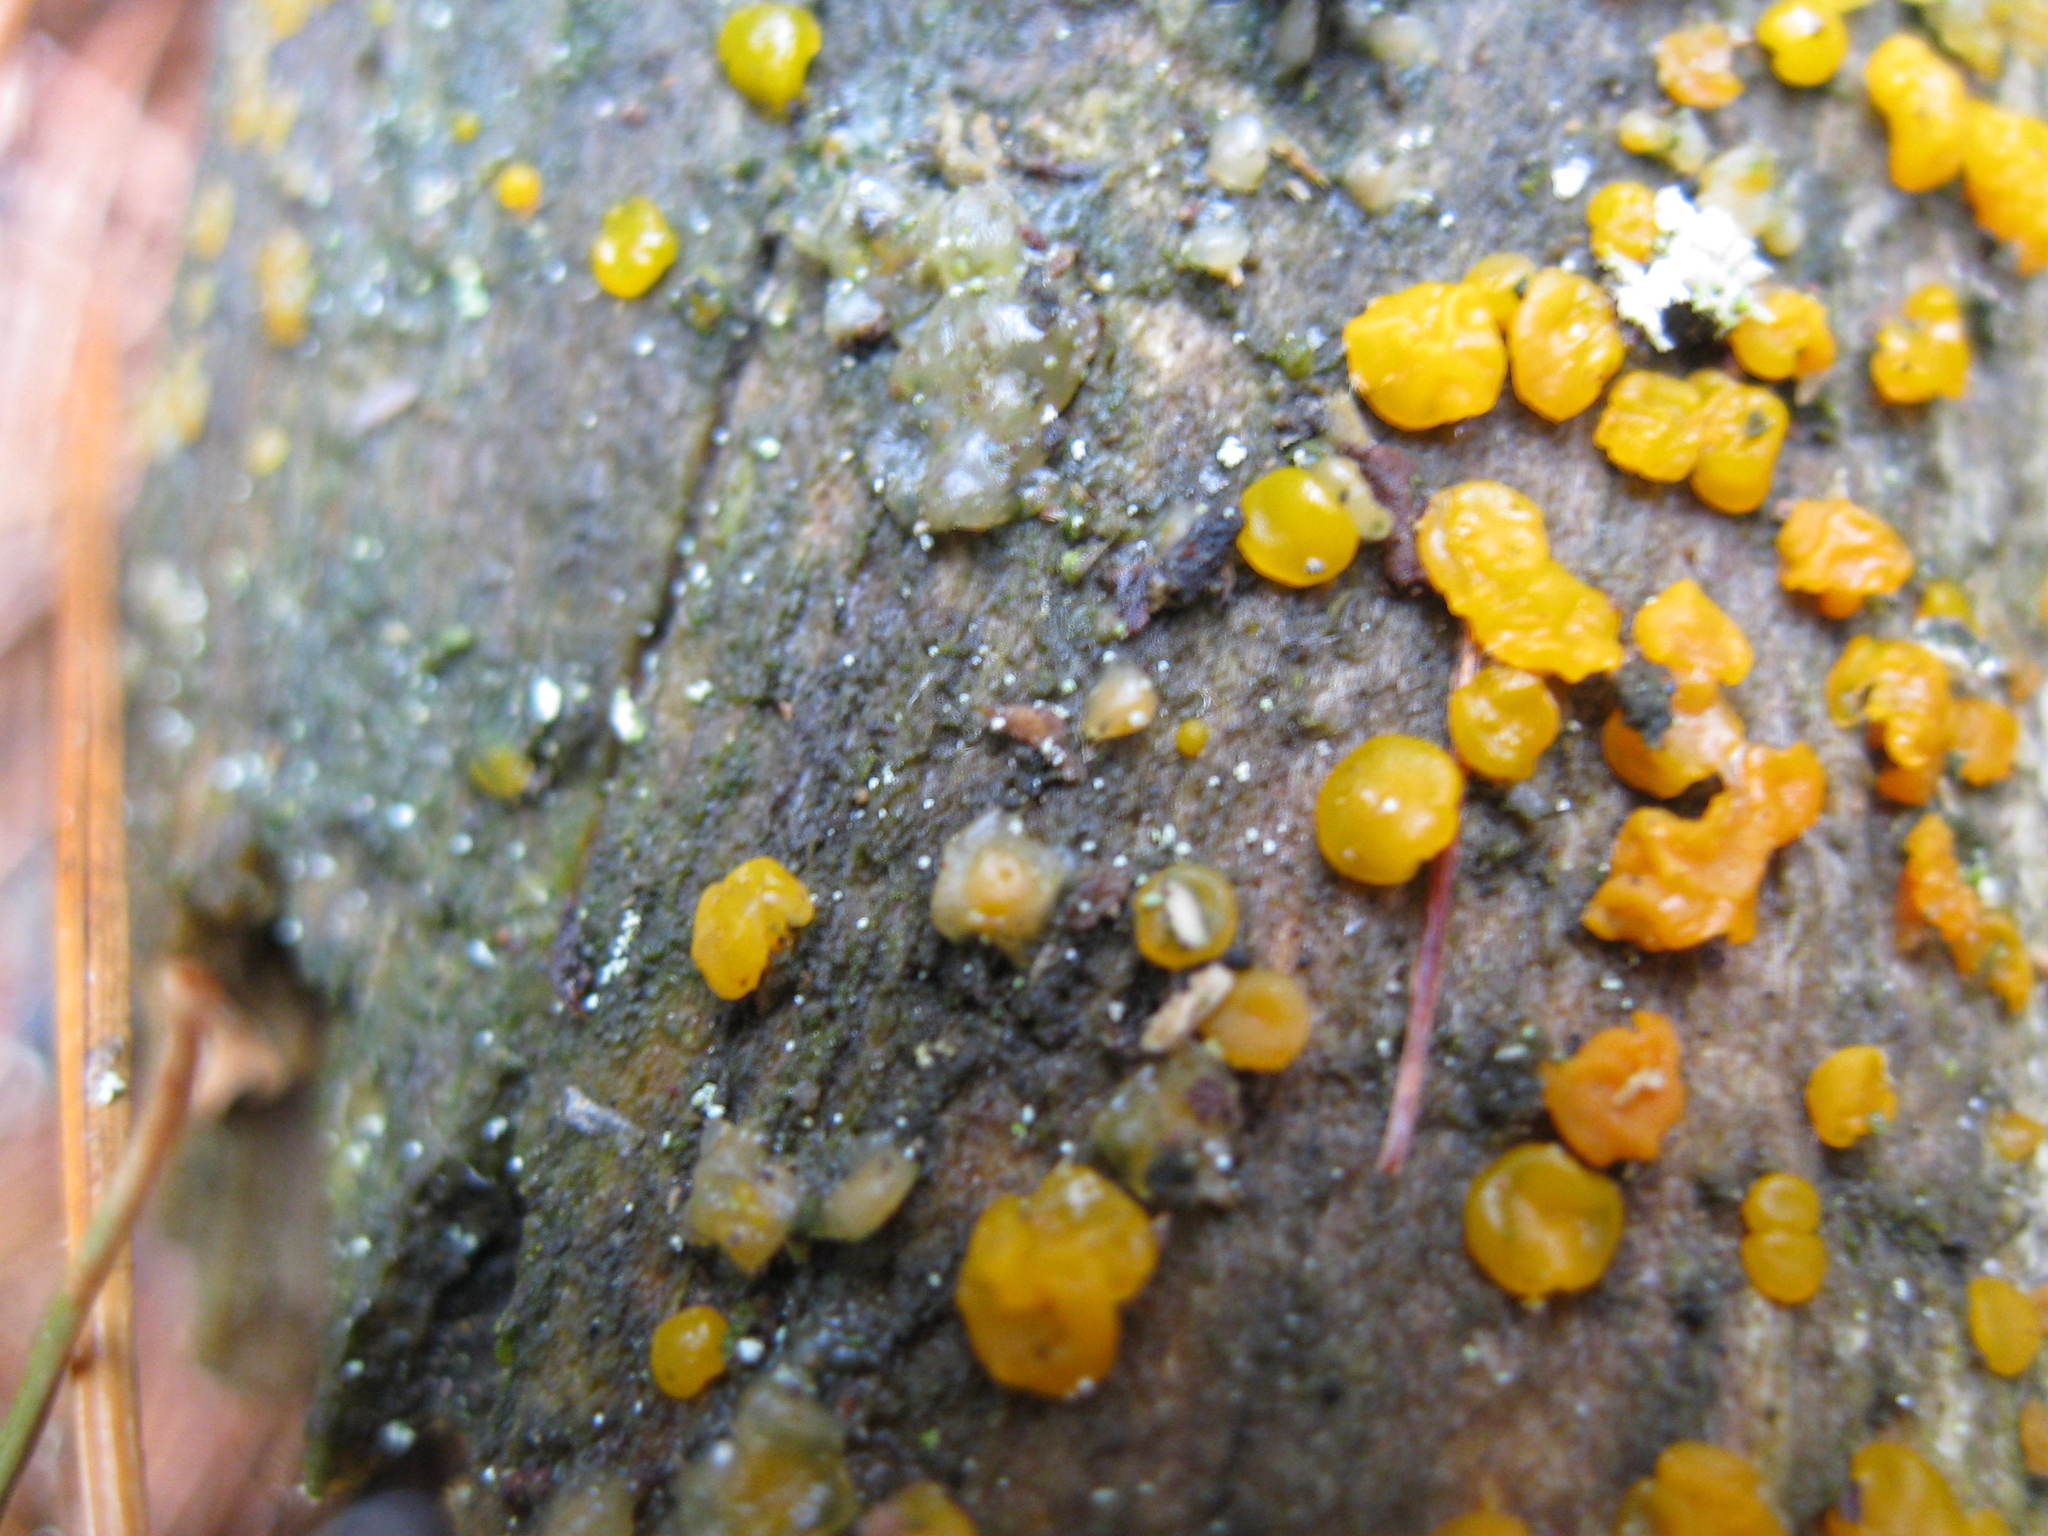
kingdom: Fungi
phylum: Basidiomycota
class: Dacrymycetes
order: Dacrymycetales
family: Dacrymycetaceae
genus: Dacrymyces
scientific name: Dacrymyces stillatus
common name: Common jelly spot
